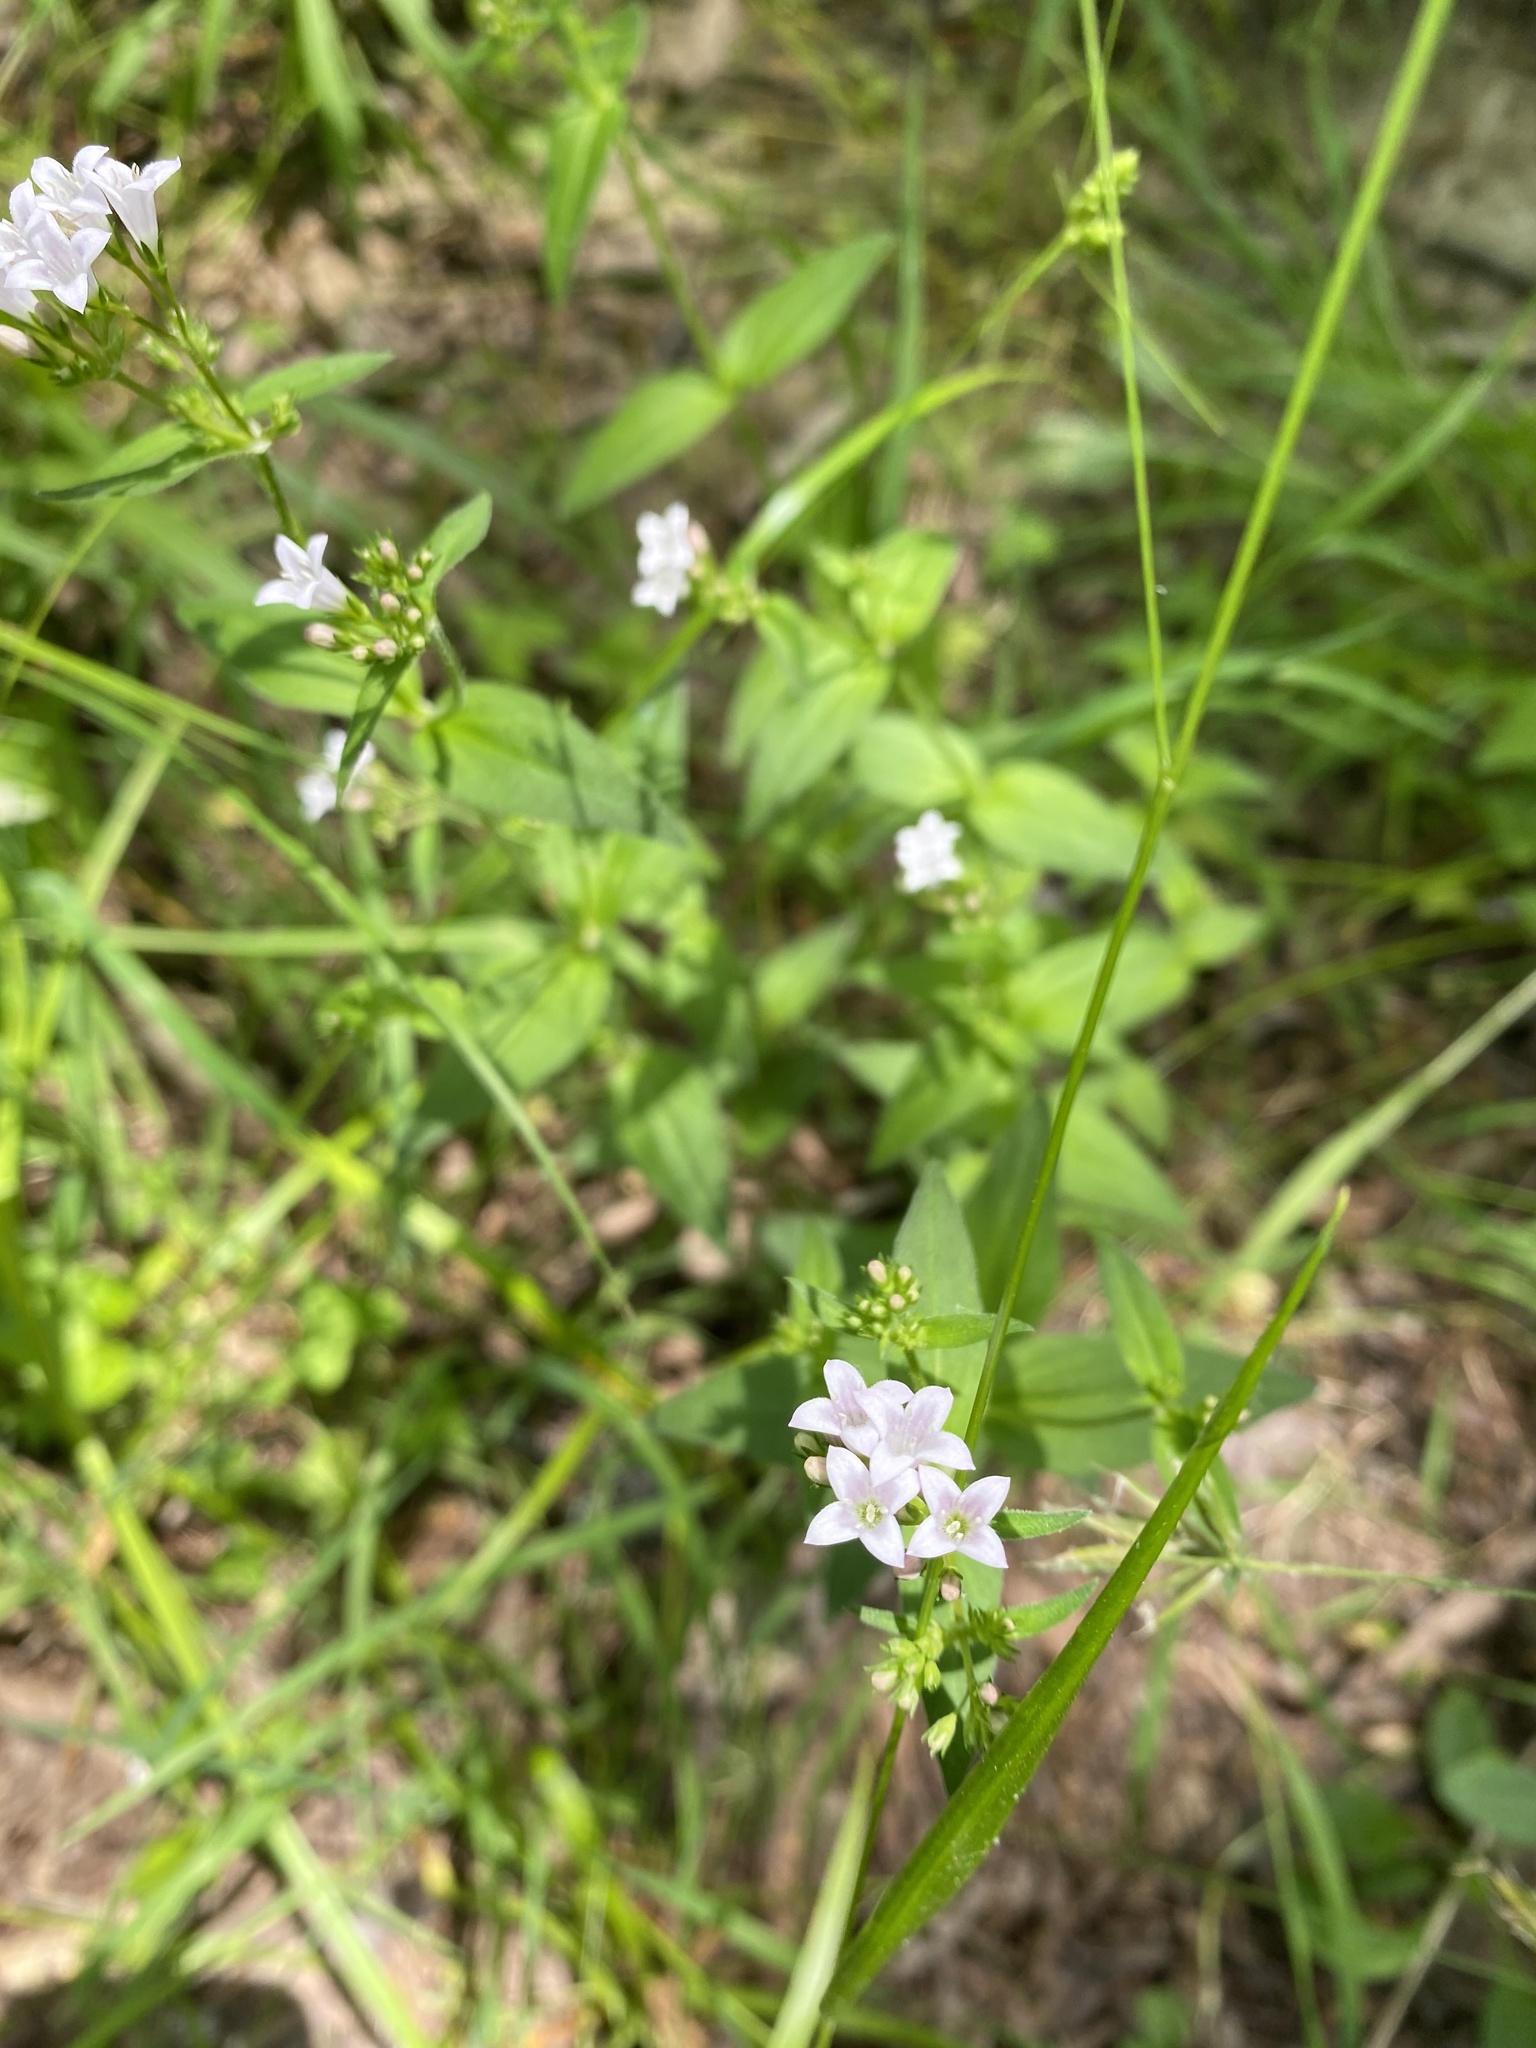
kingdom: Plantae
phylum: Tracheophyta
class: Magnoliopsida
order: Gentianales
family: Rubiaceae
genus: Houstonia
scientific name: Houstonia purpurea
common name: Summer bluet
